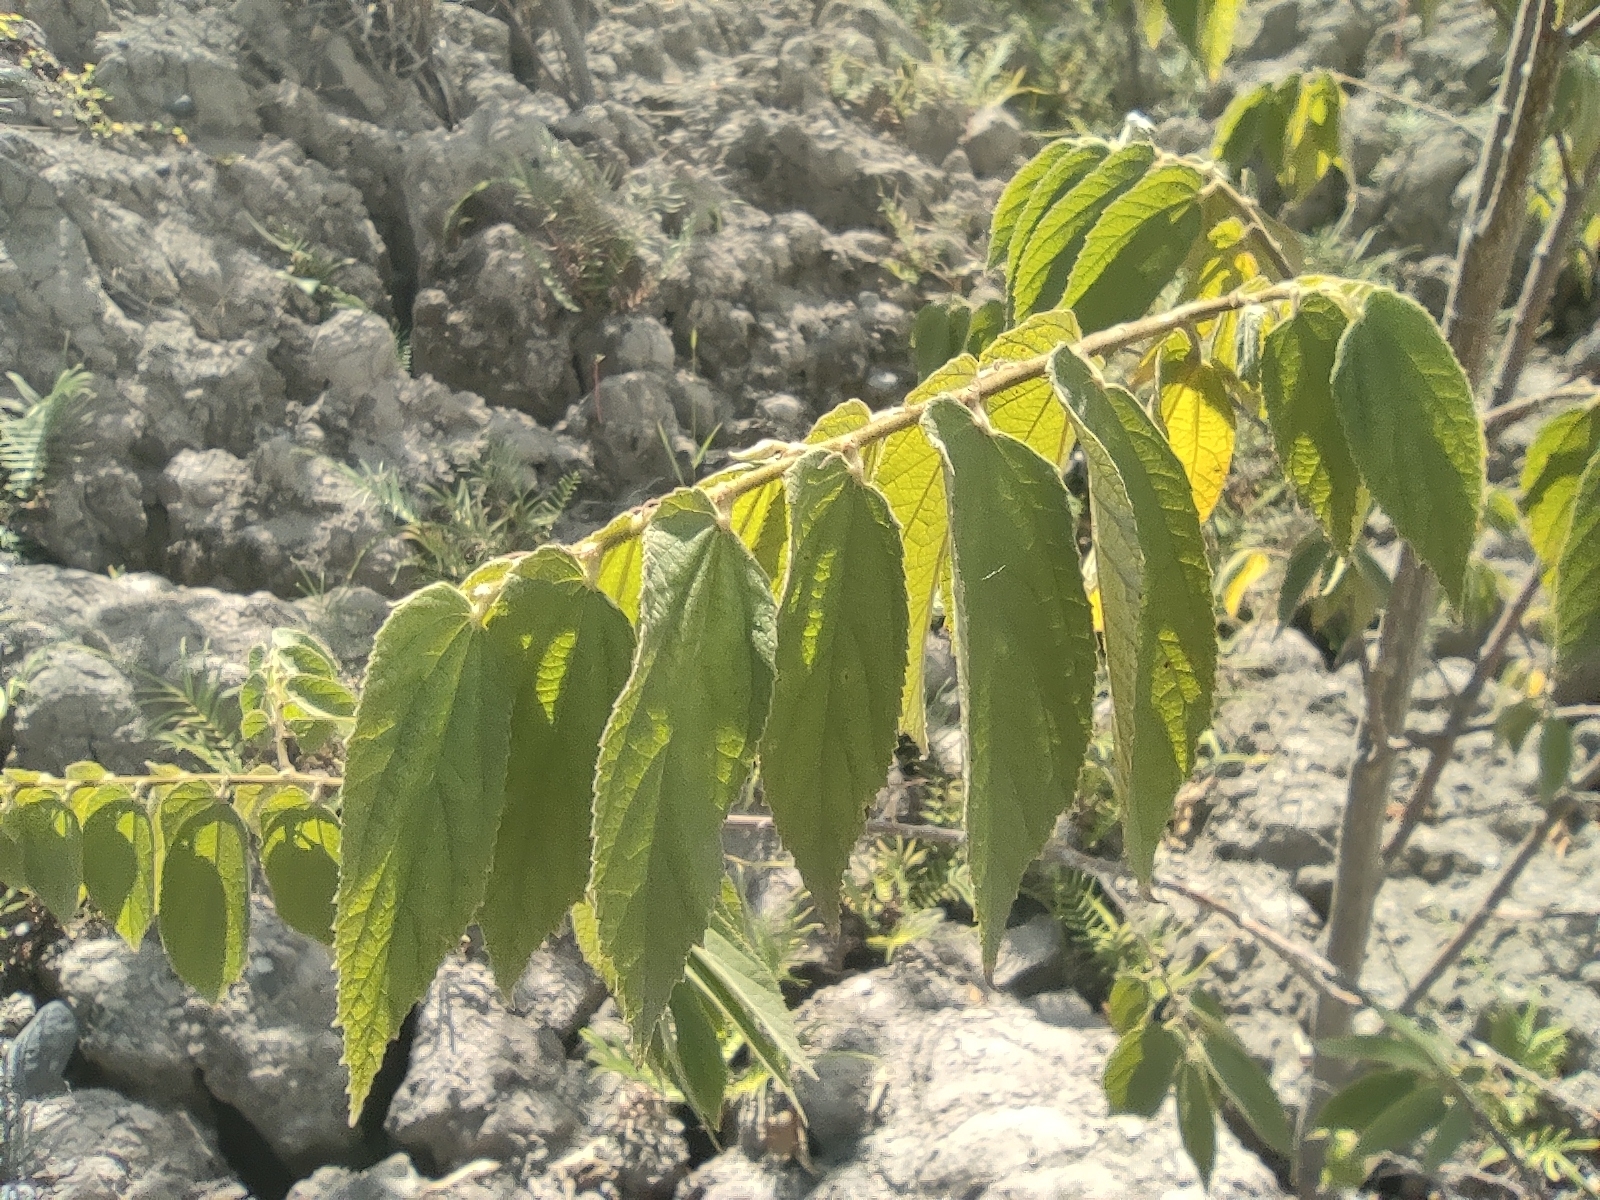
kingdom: Plantae
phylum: Tracheophyta
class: Magnoliopsida
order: Malvales
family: Muntingiaceae
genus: Muntingia
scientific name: Muntingia calabura
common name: Strawberrytree
